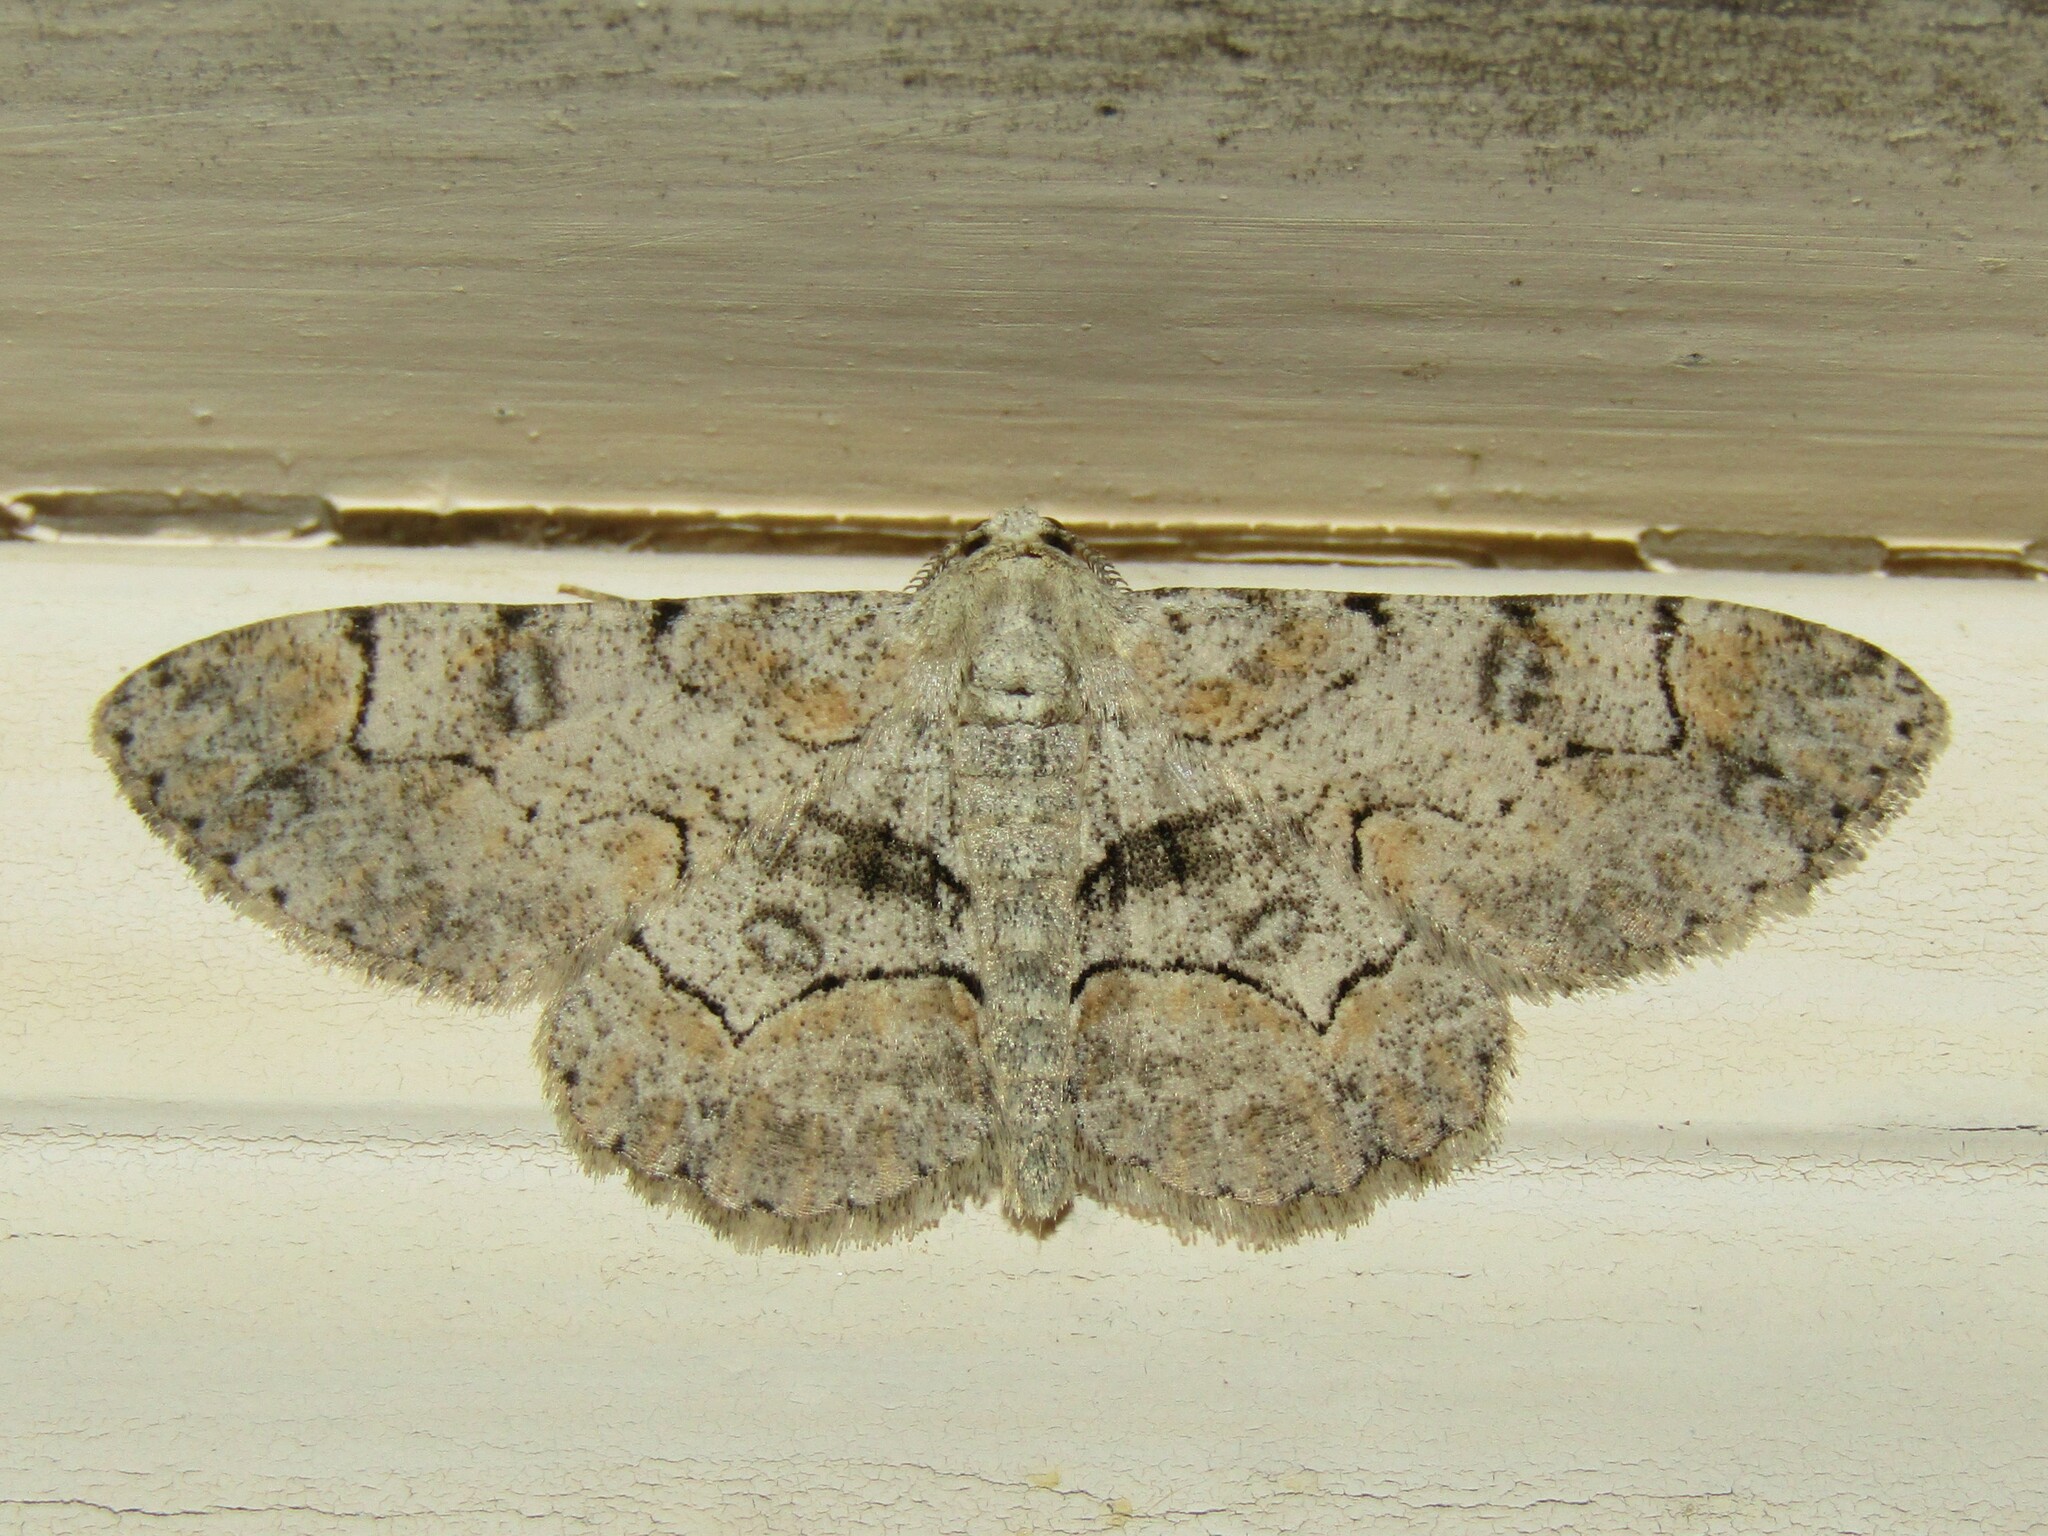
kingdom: Animalia
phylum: Arthropoda
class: Insecta
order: Lepidoptera
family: Geometridae
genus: Iridopsis
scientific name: Iridopsis larvaria
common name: Bent-line gray
